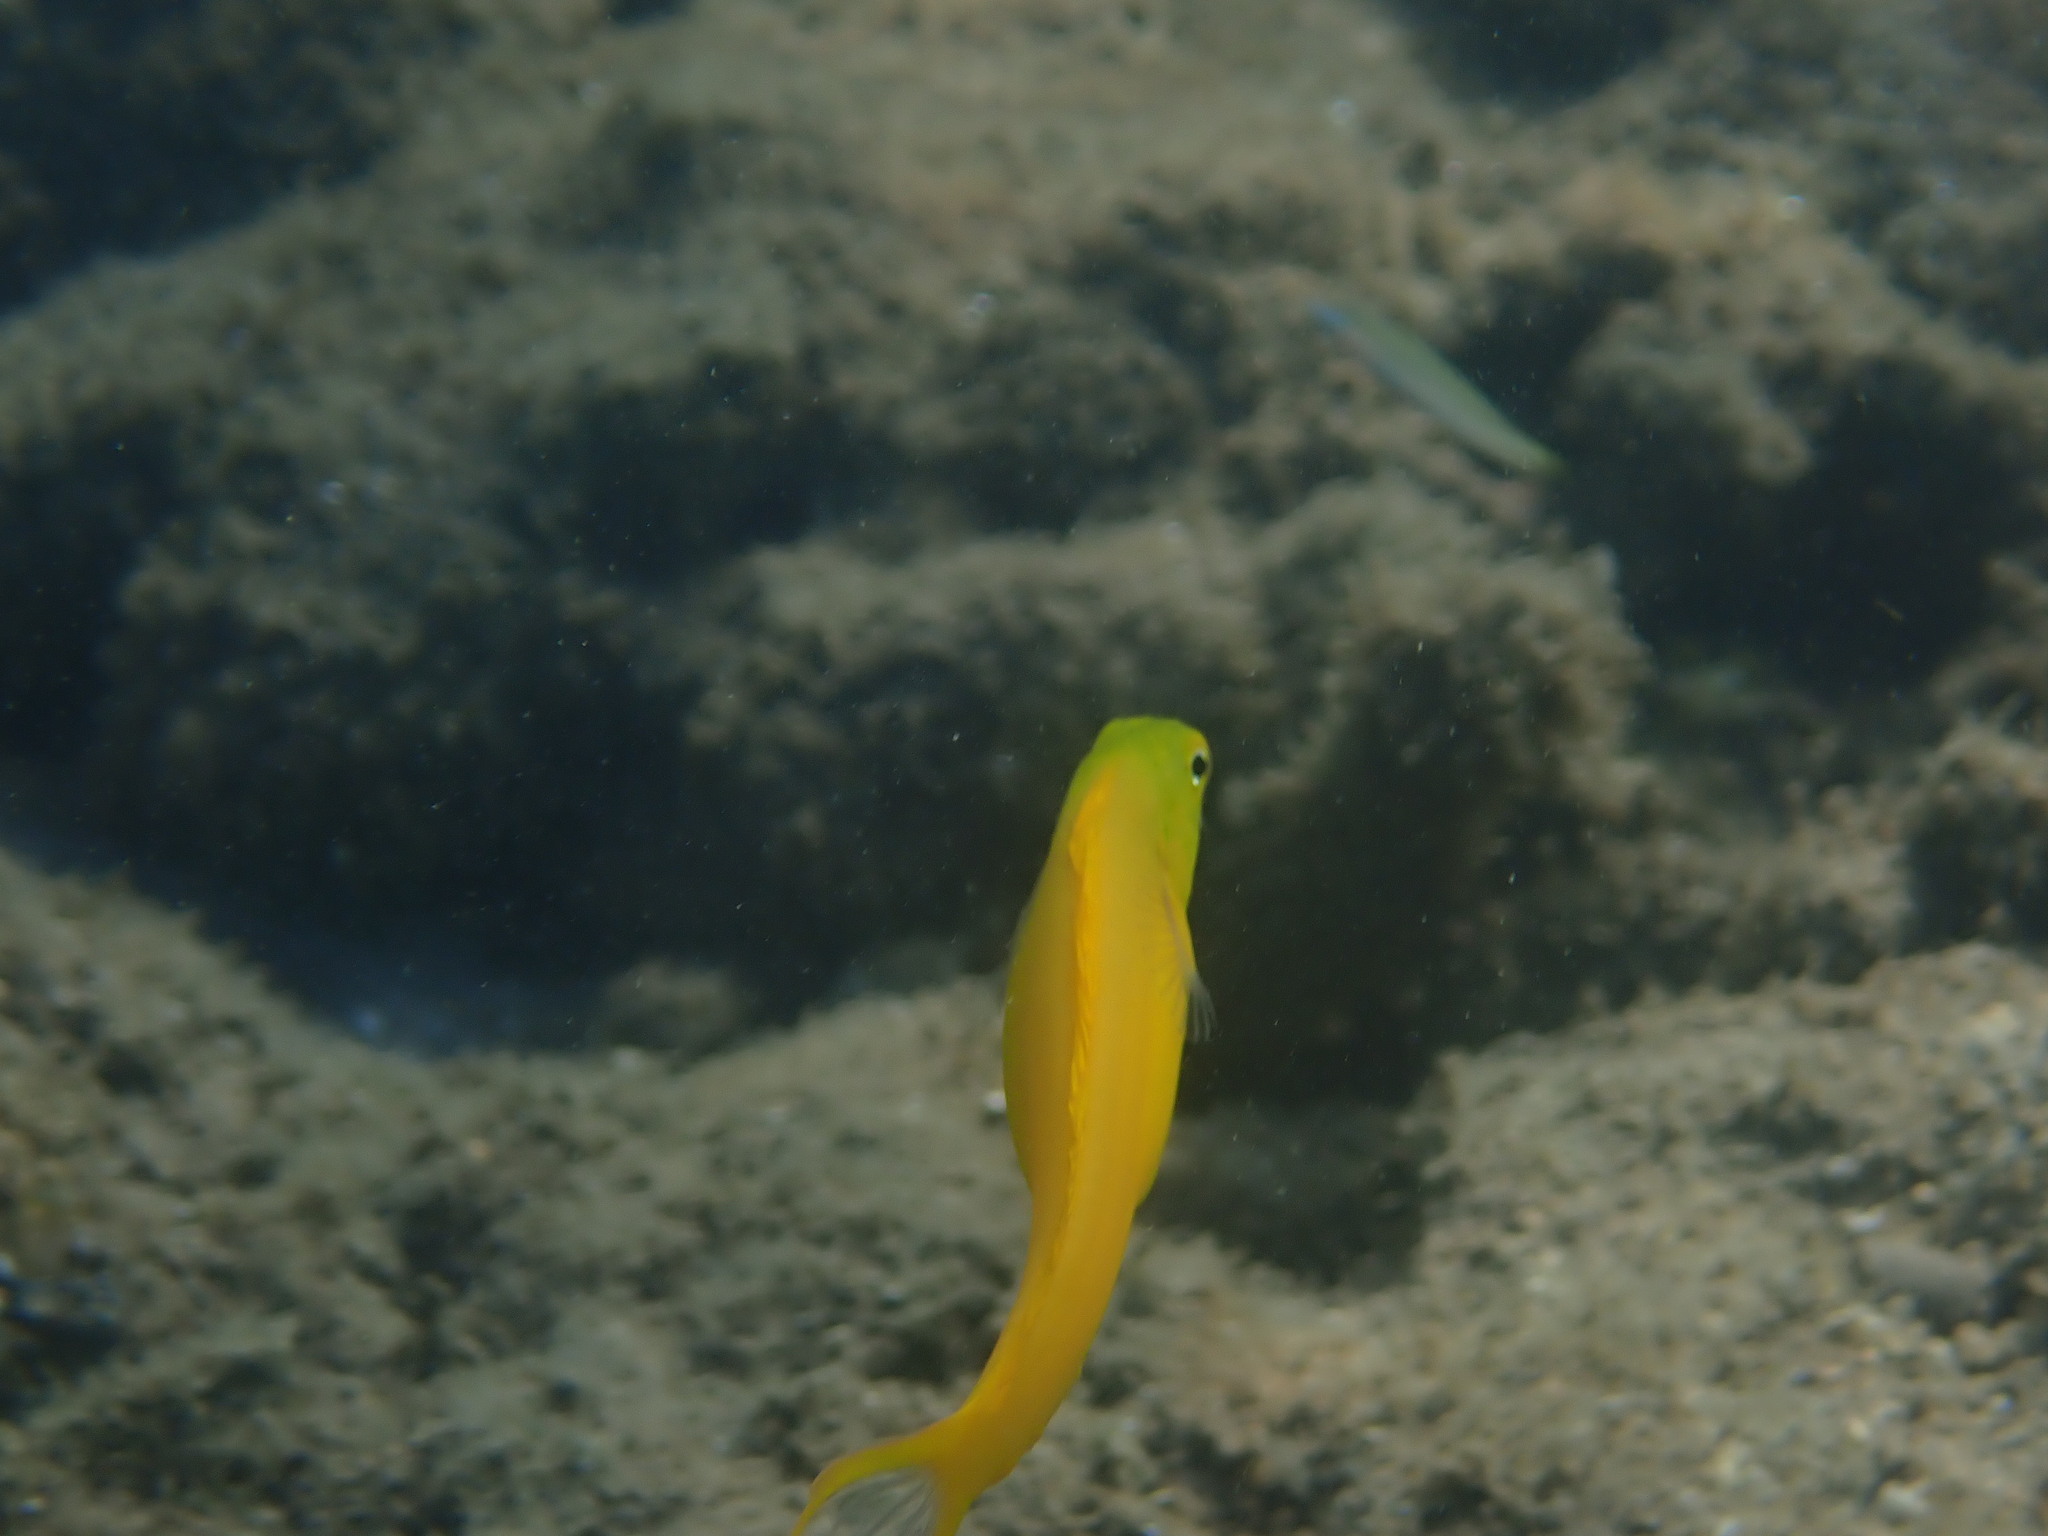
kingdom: Animalia
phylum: Chordata
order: Perciformes
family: Blenniidae
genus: Meiacanthus
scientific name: Meiacanthus oualanensis
